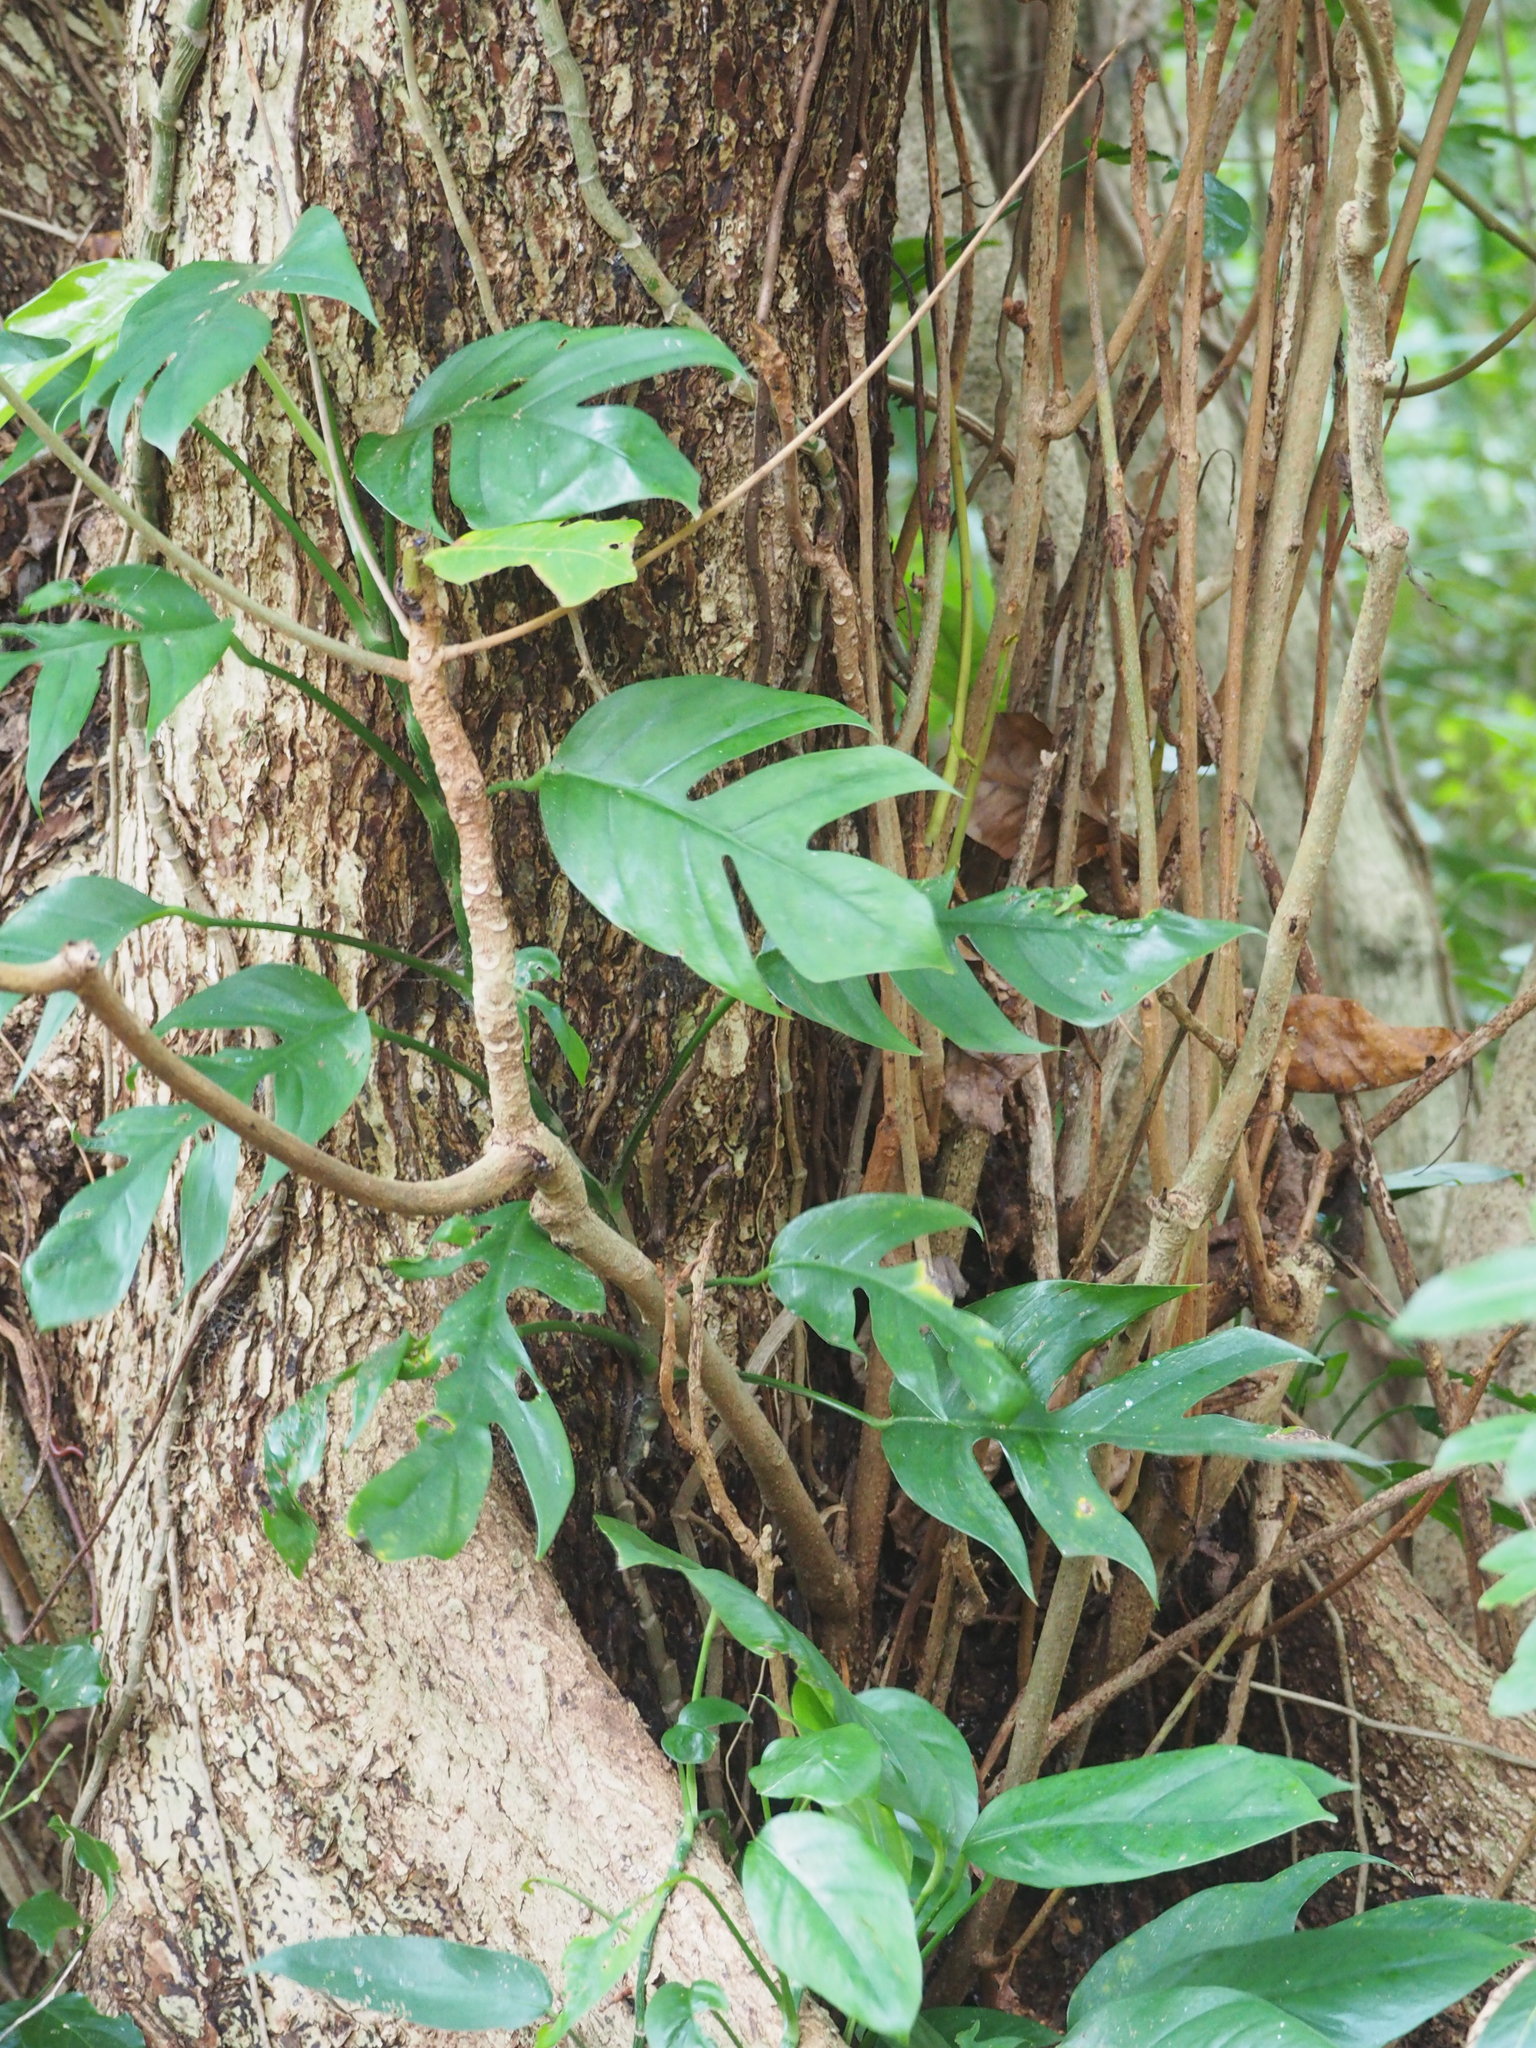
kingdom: Plantae
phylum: Tracheophyta
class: Liliopsida
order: Alismatales
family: Araceae
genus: Epipremnum
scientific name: Epipremnum pinnatum
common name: Centipede tongavine
